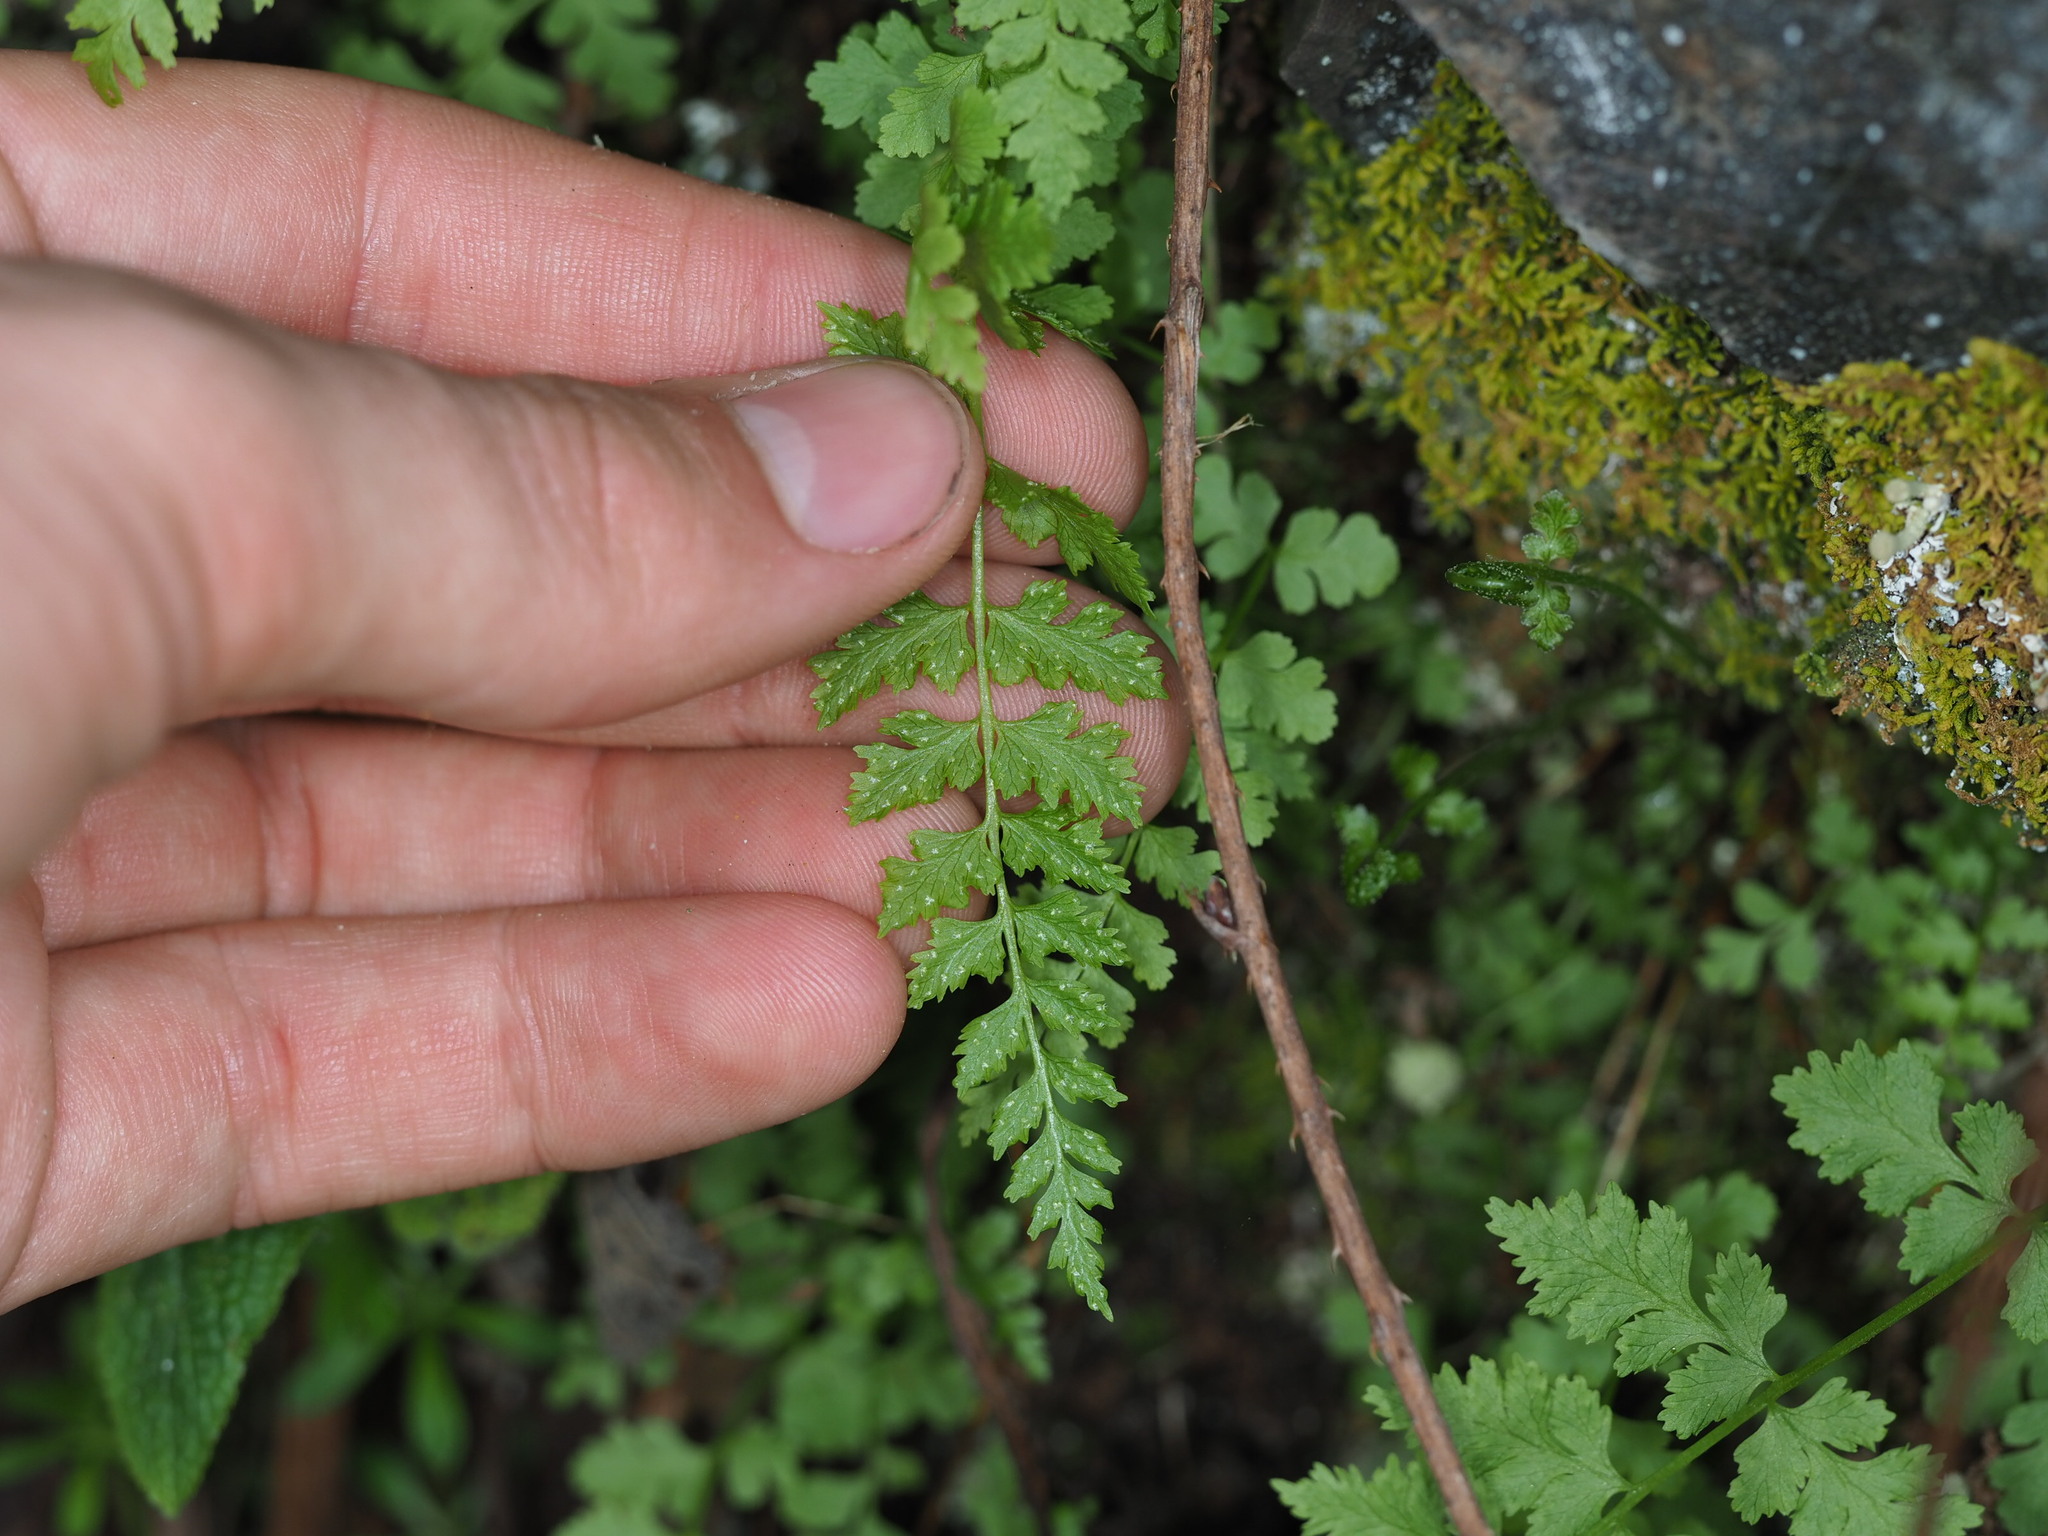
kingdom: Plantae
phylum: Tracheophyta
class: Polypodiopsida
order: Polypodiales
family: Cystopteridaceae
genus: Cystopteris
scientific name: Cystopteris fragilis
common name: Brittle bladder fern
